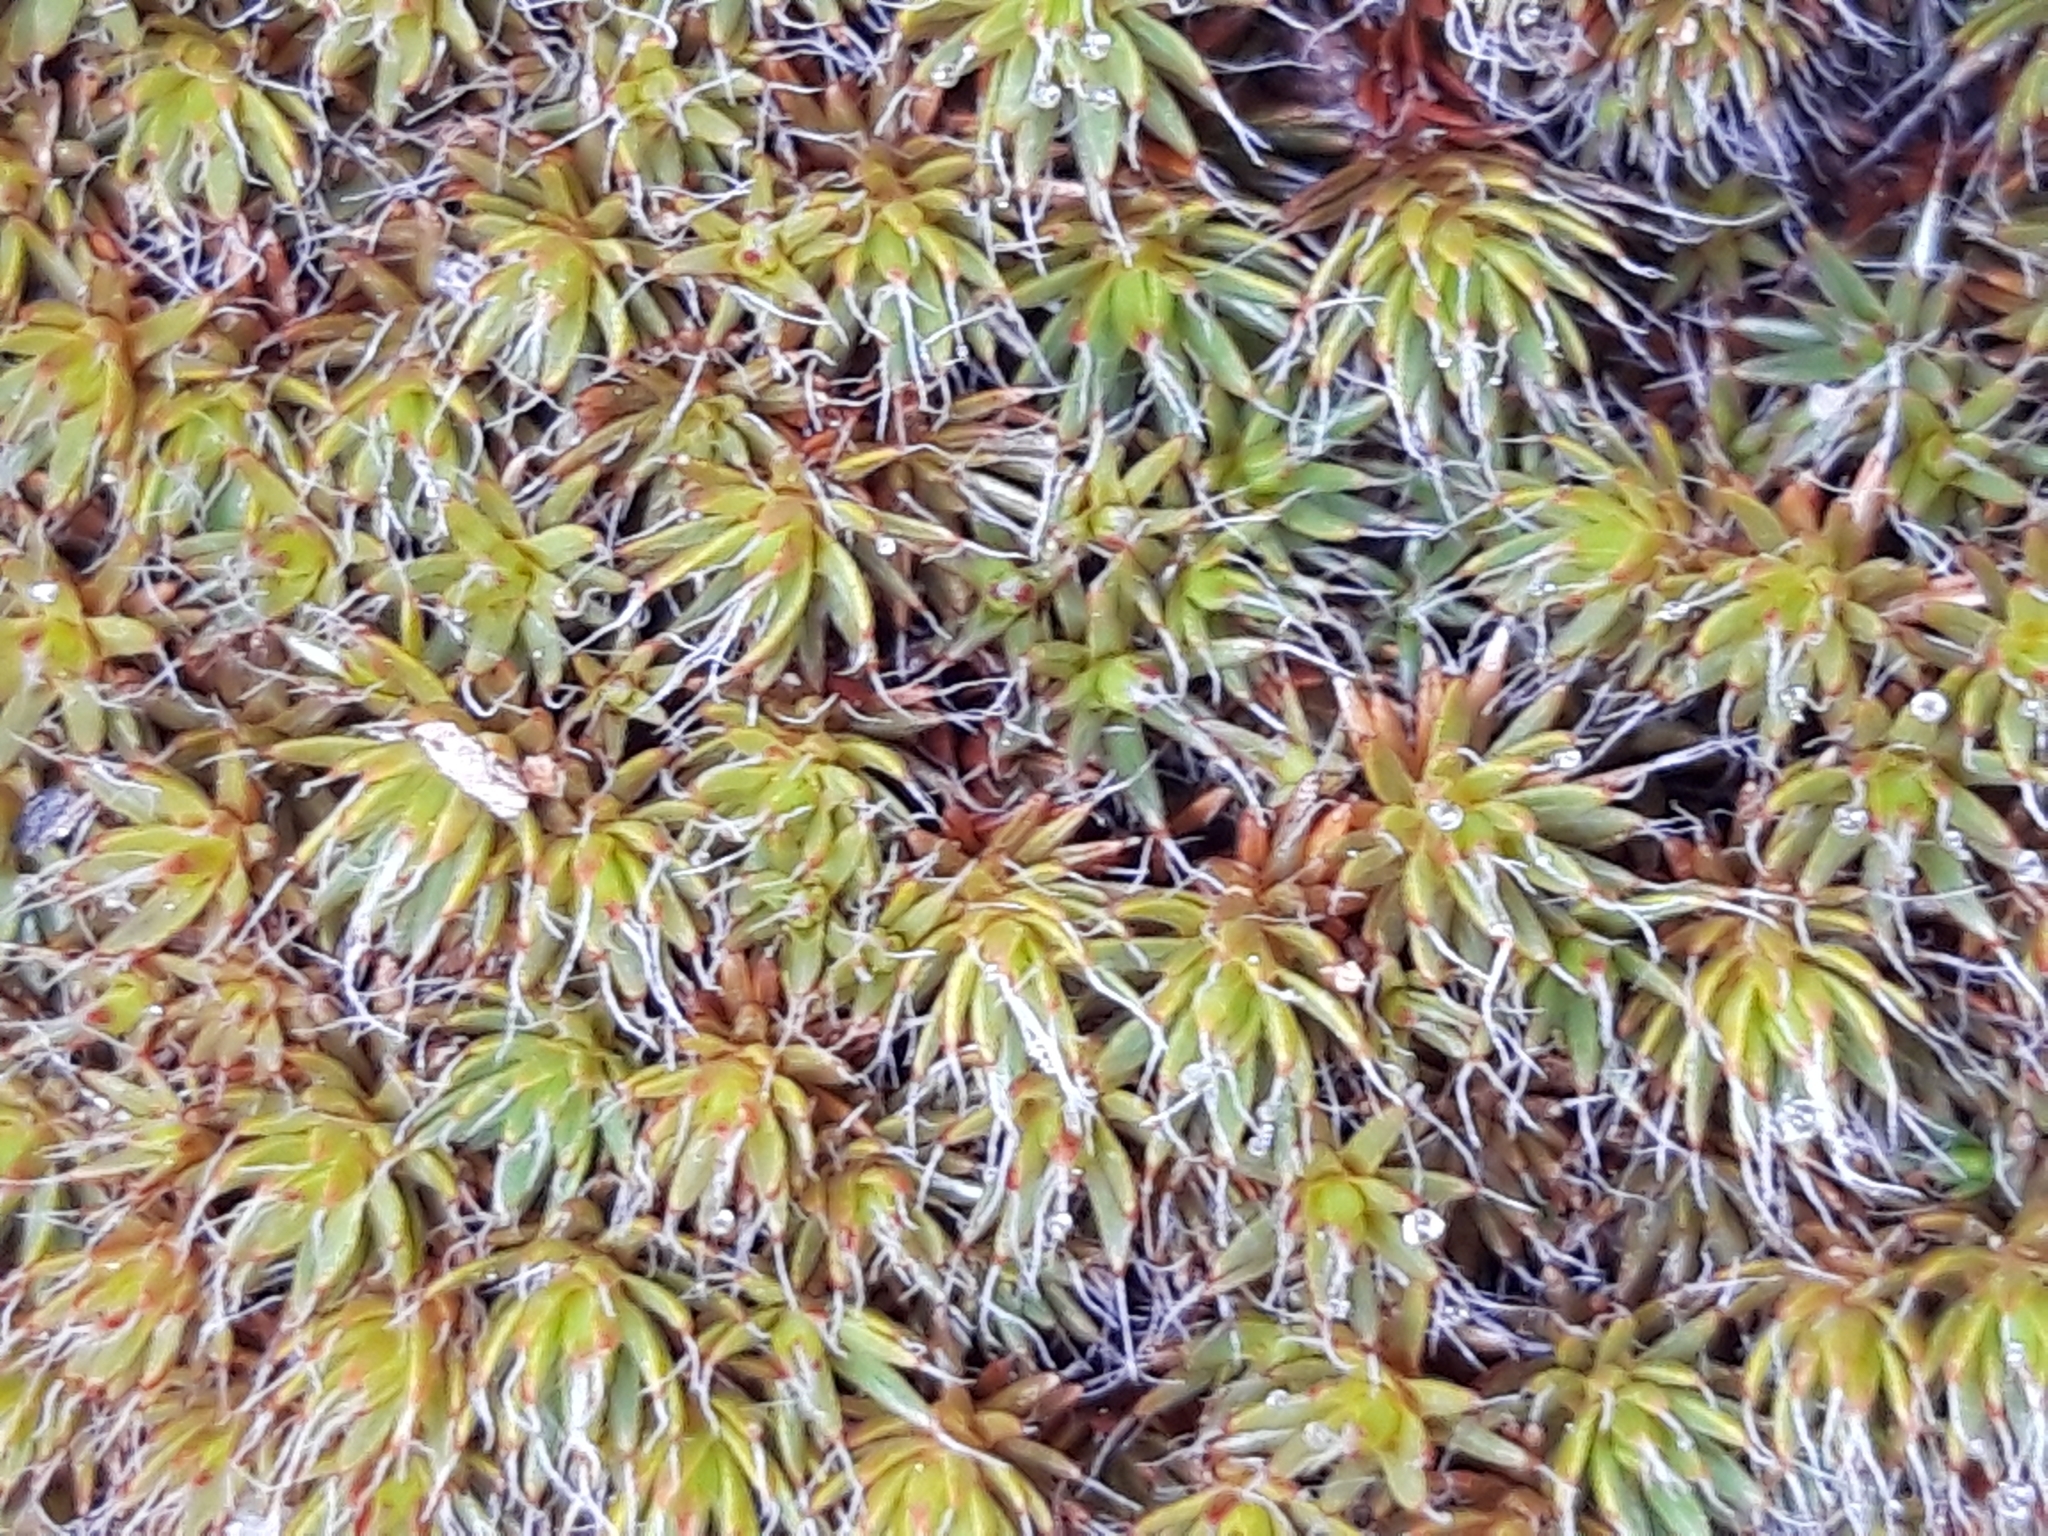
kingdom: Plantae
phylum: Bryophyta
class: Polytrichopsida
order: Polytrichales
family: Polytrichaceae
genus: Polytrichum
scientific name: Polytrichum piliferum
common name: Bristly haircap
